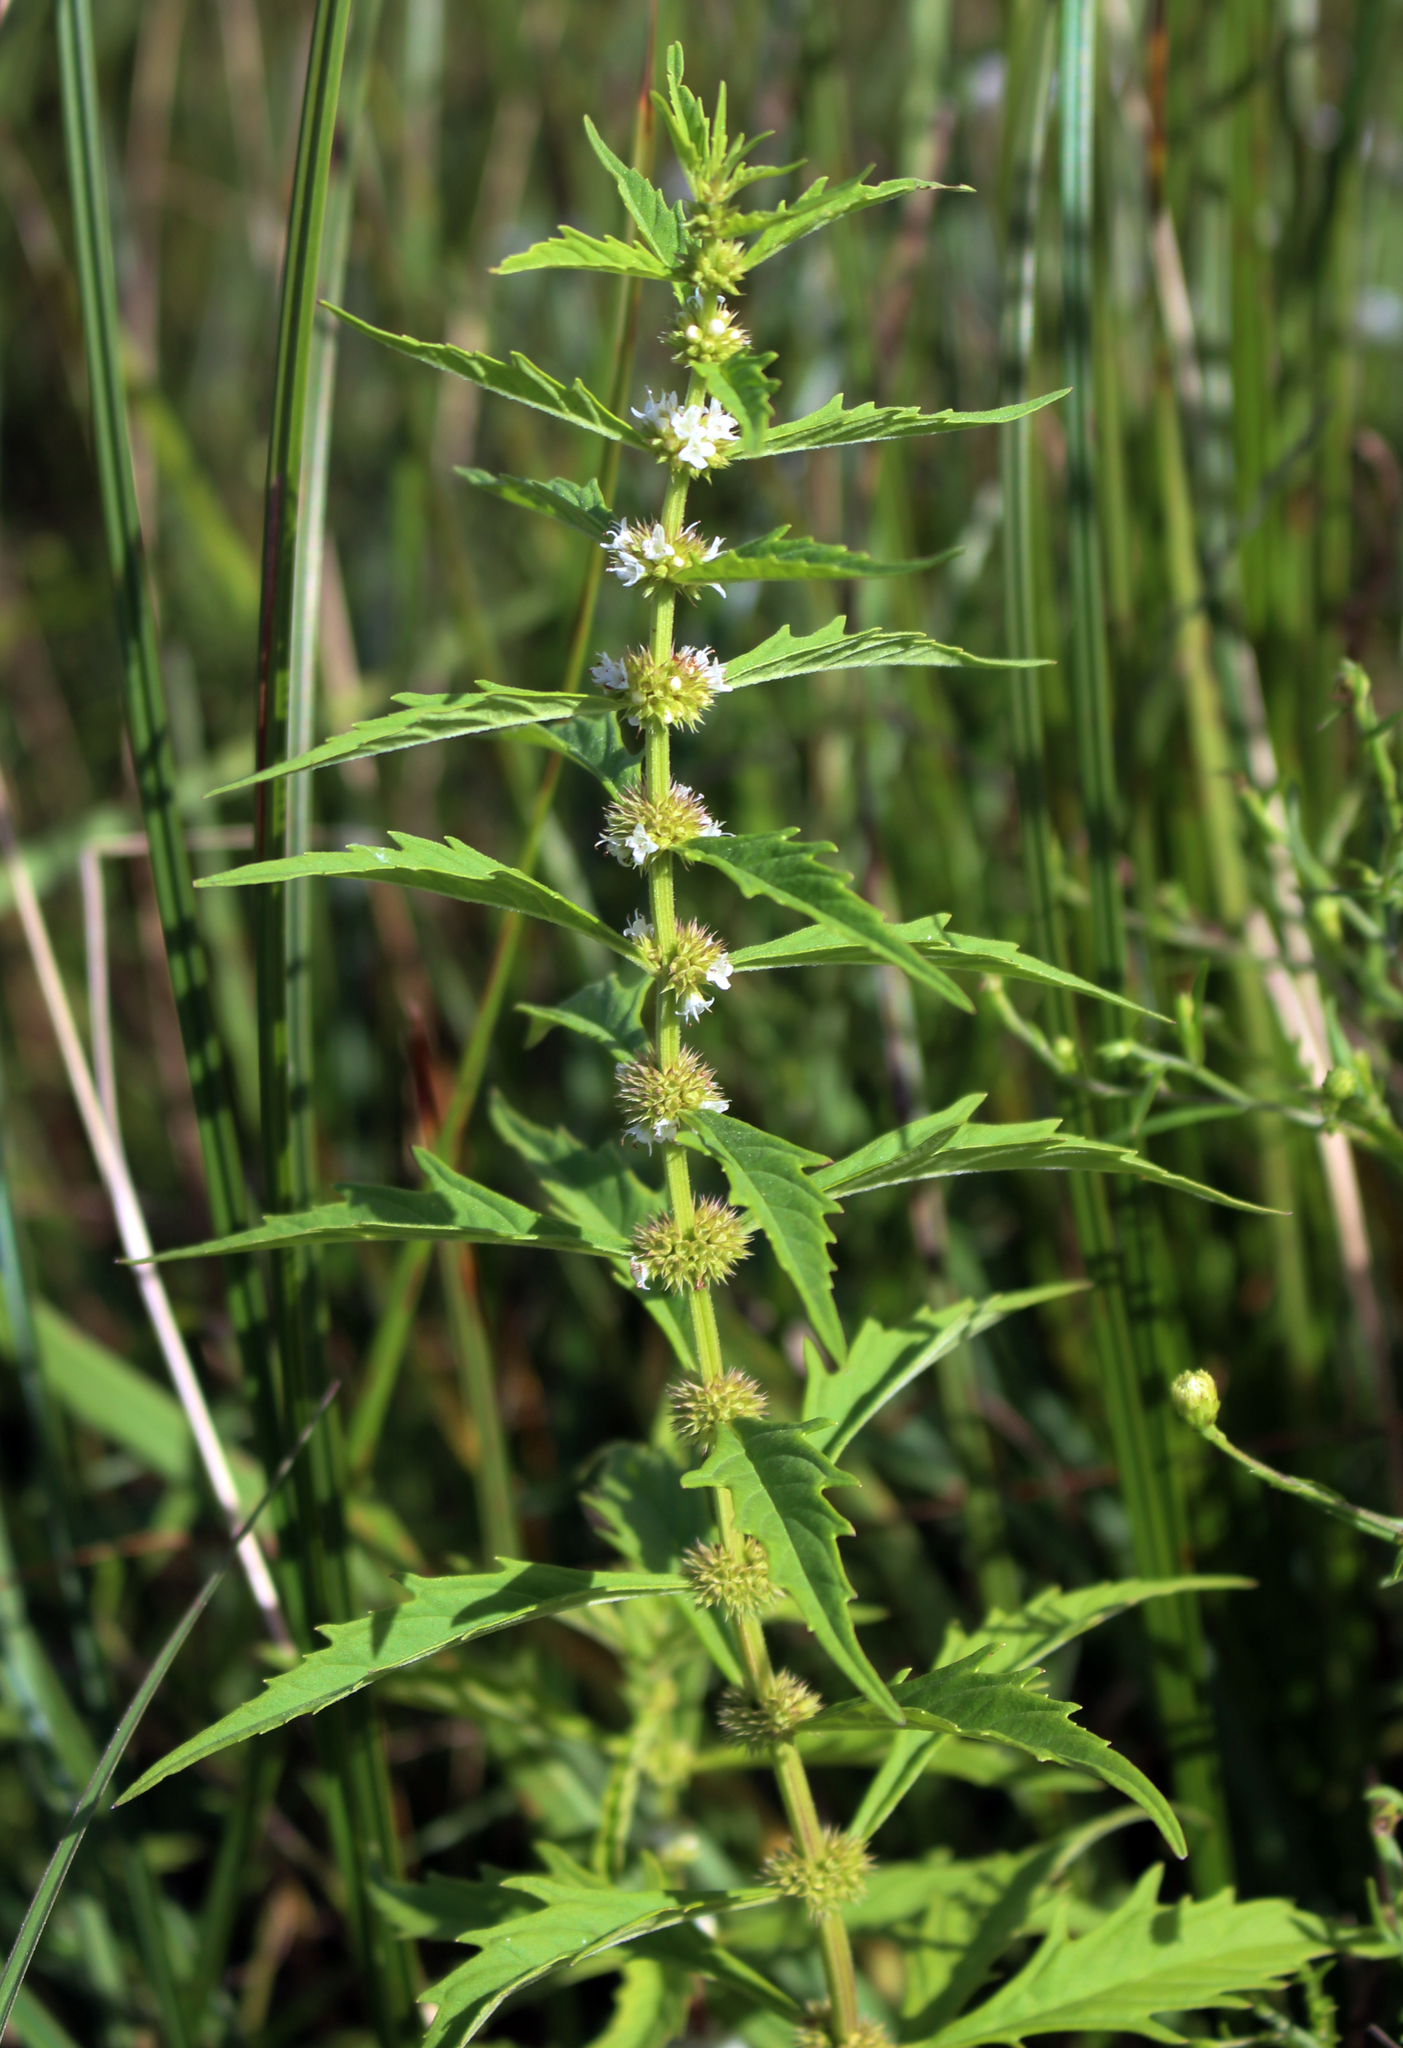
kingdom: Plantae
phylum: Tracheophyta
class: Magnoliopsida
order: Lamiales
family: Lamiaceae
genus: Lycopus
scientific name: Lycopus americanus
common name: American bugleweed
